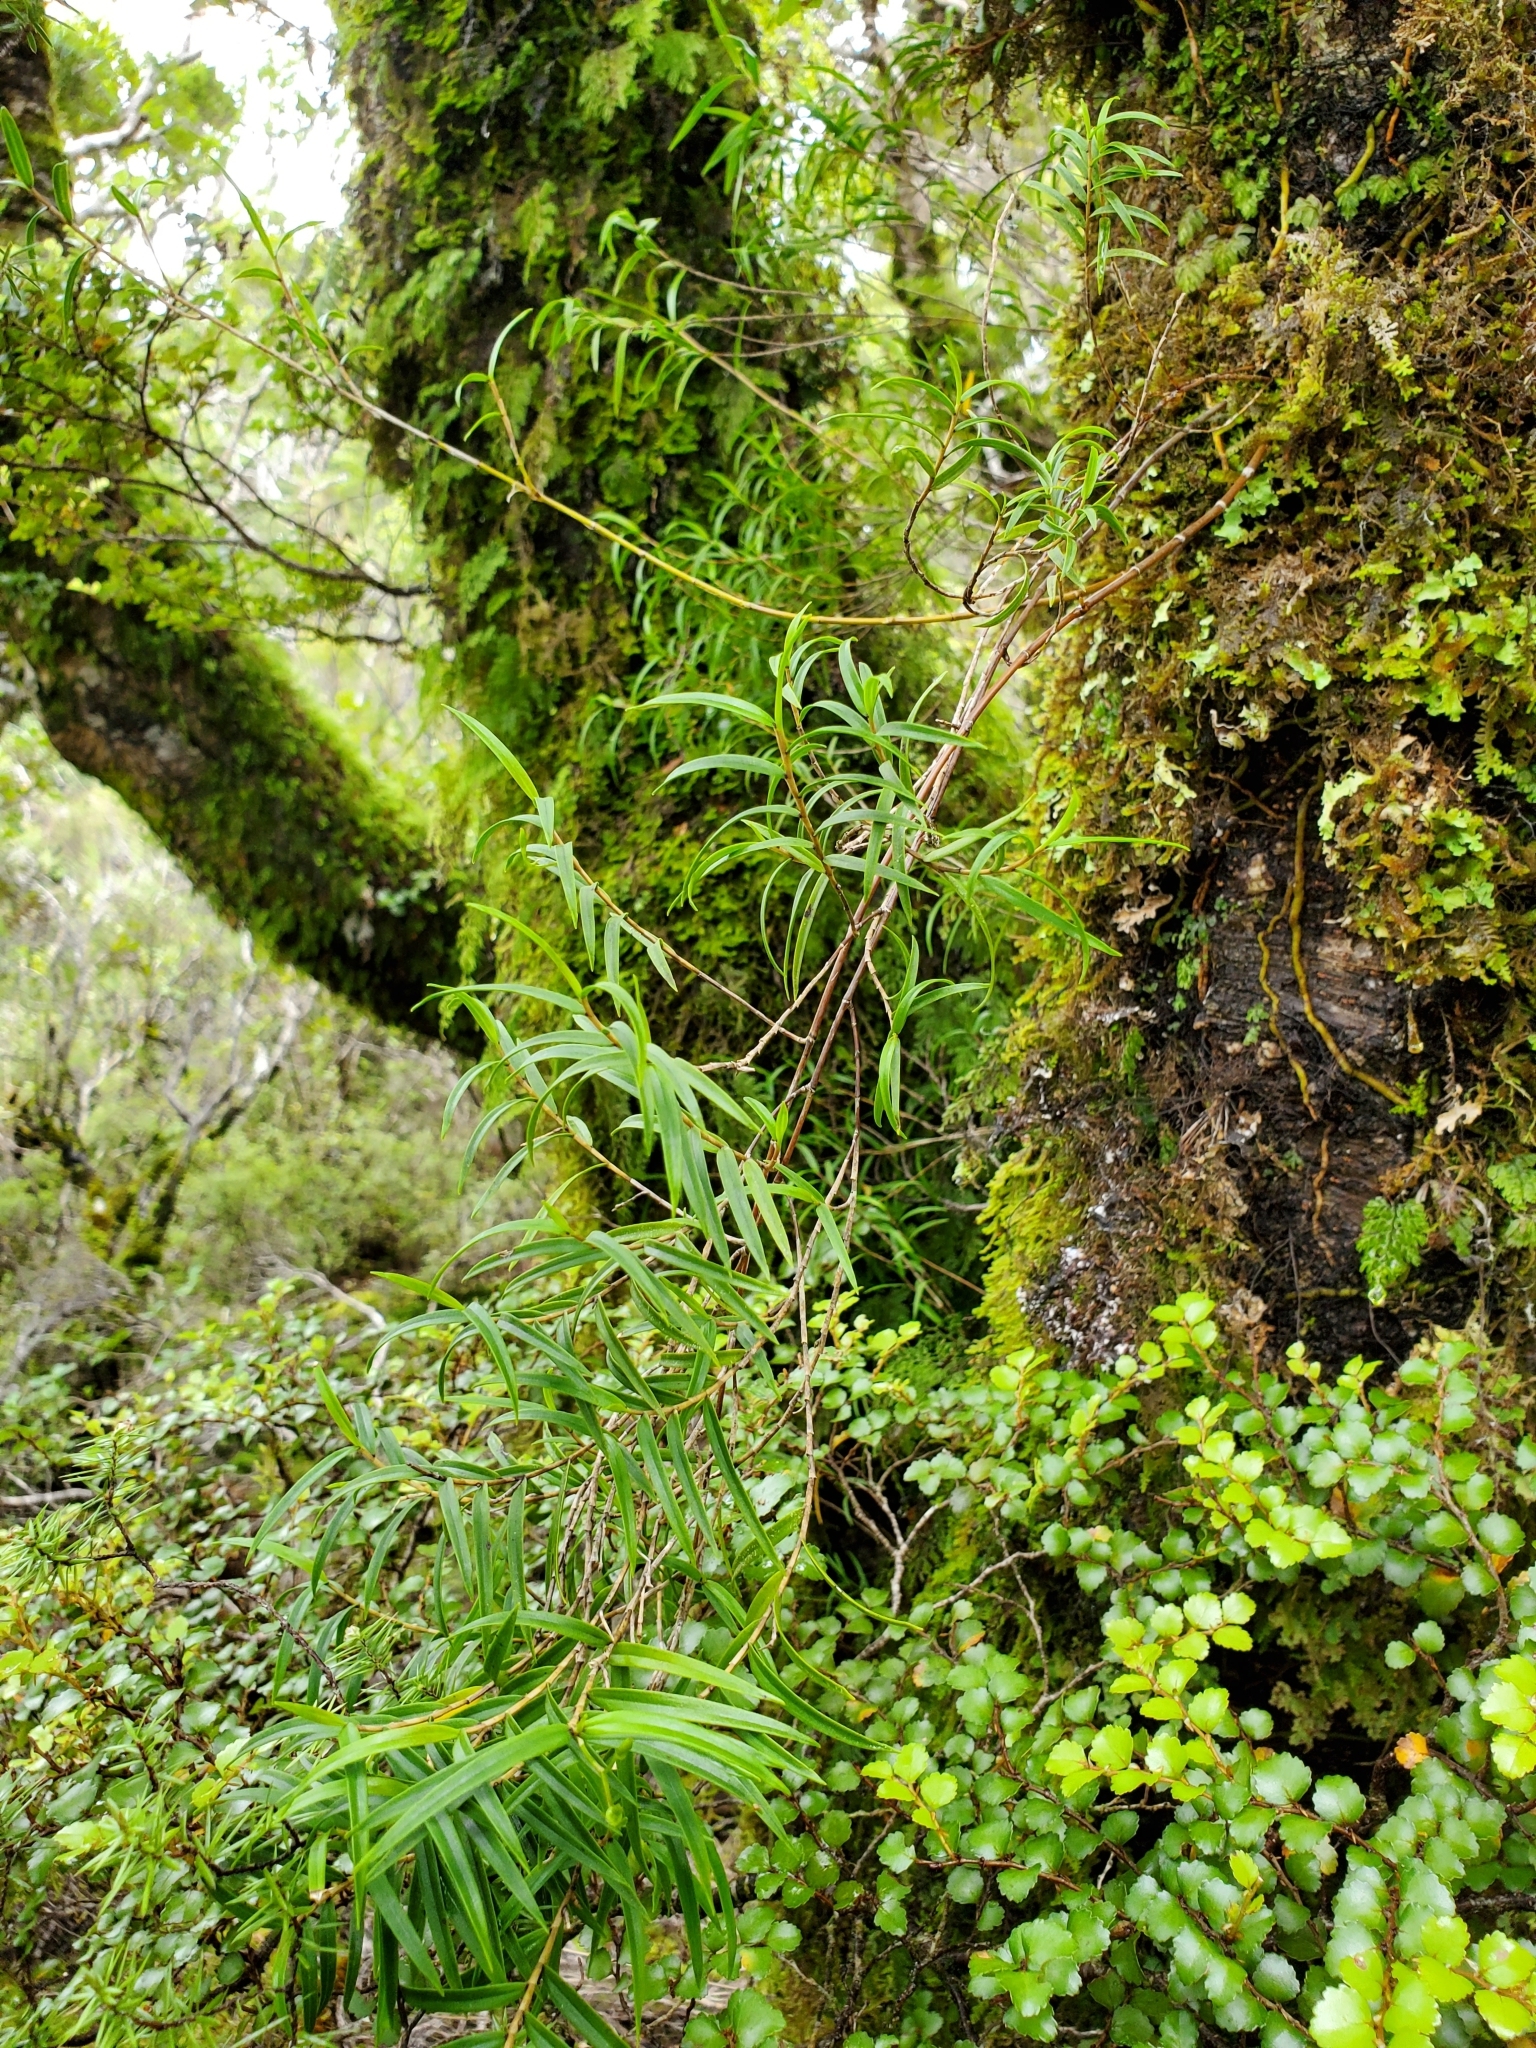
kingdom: Plantae
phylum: Tracheophyta
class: Liliopsida
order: Asparagales
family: Orchidaceae
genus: Dendrobium
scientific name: Dendrobium cunninghamii
